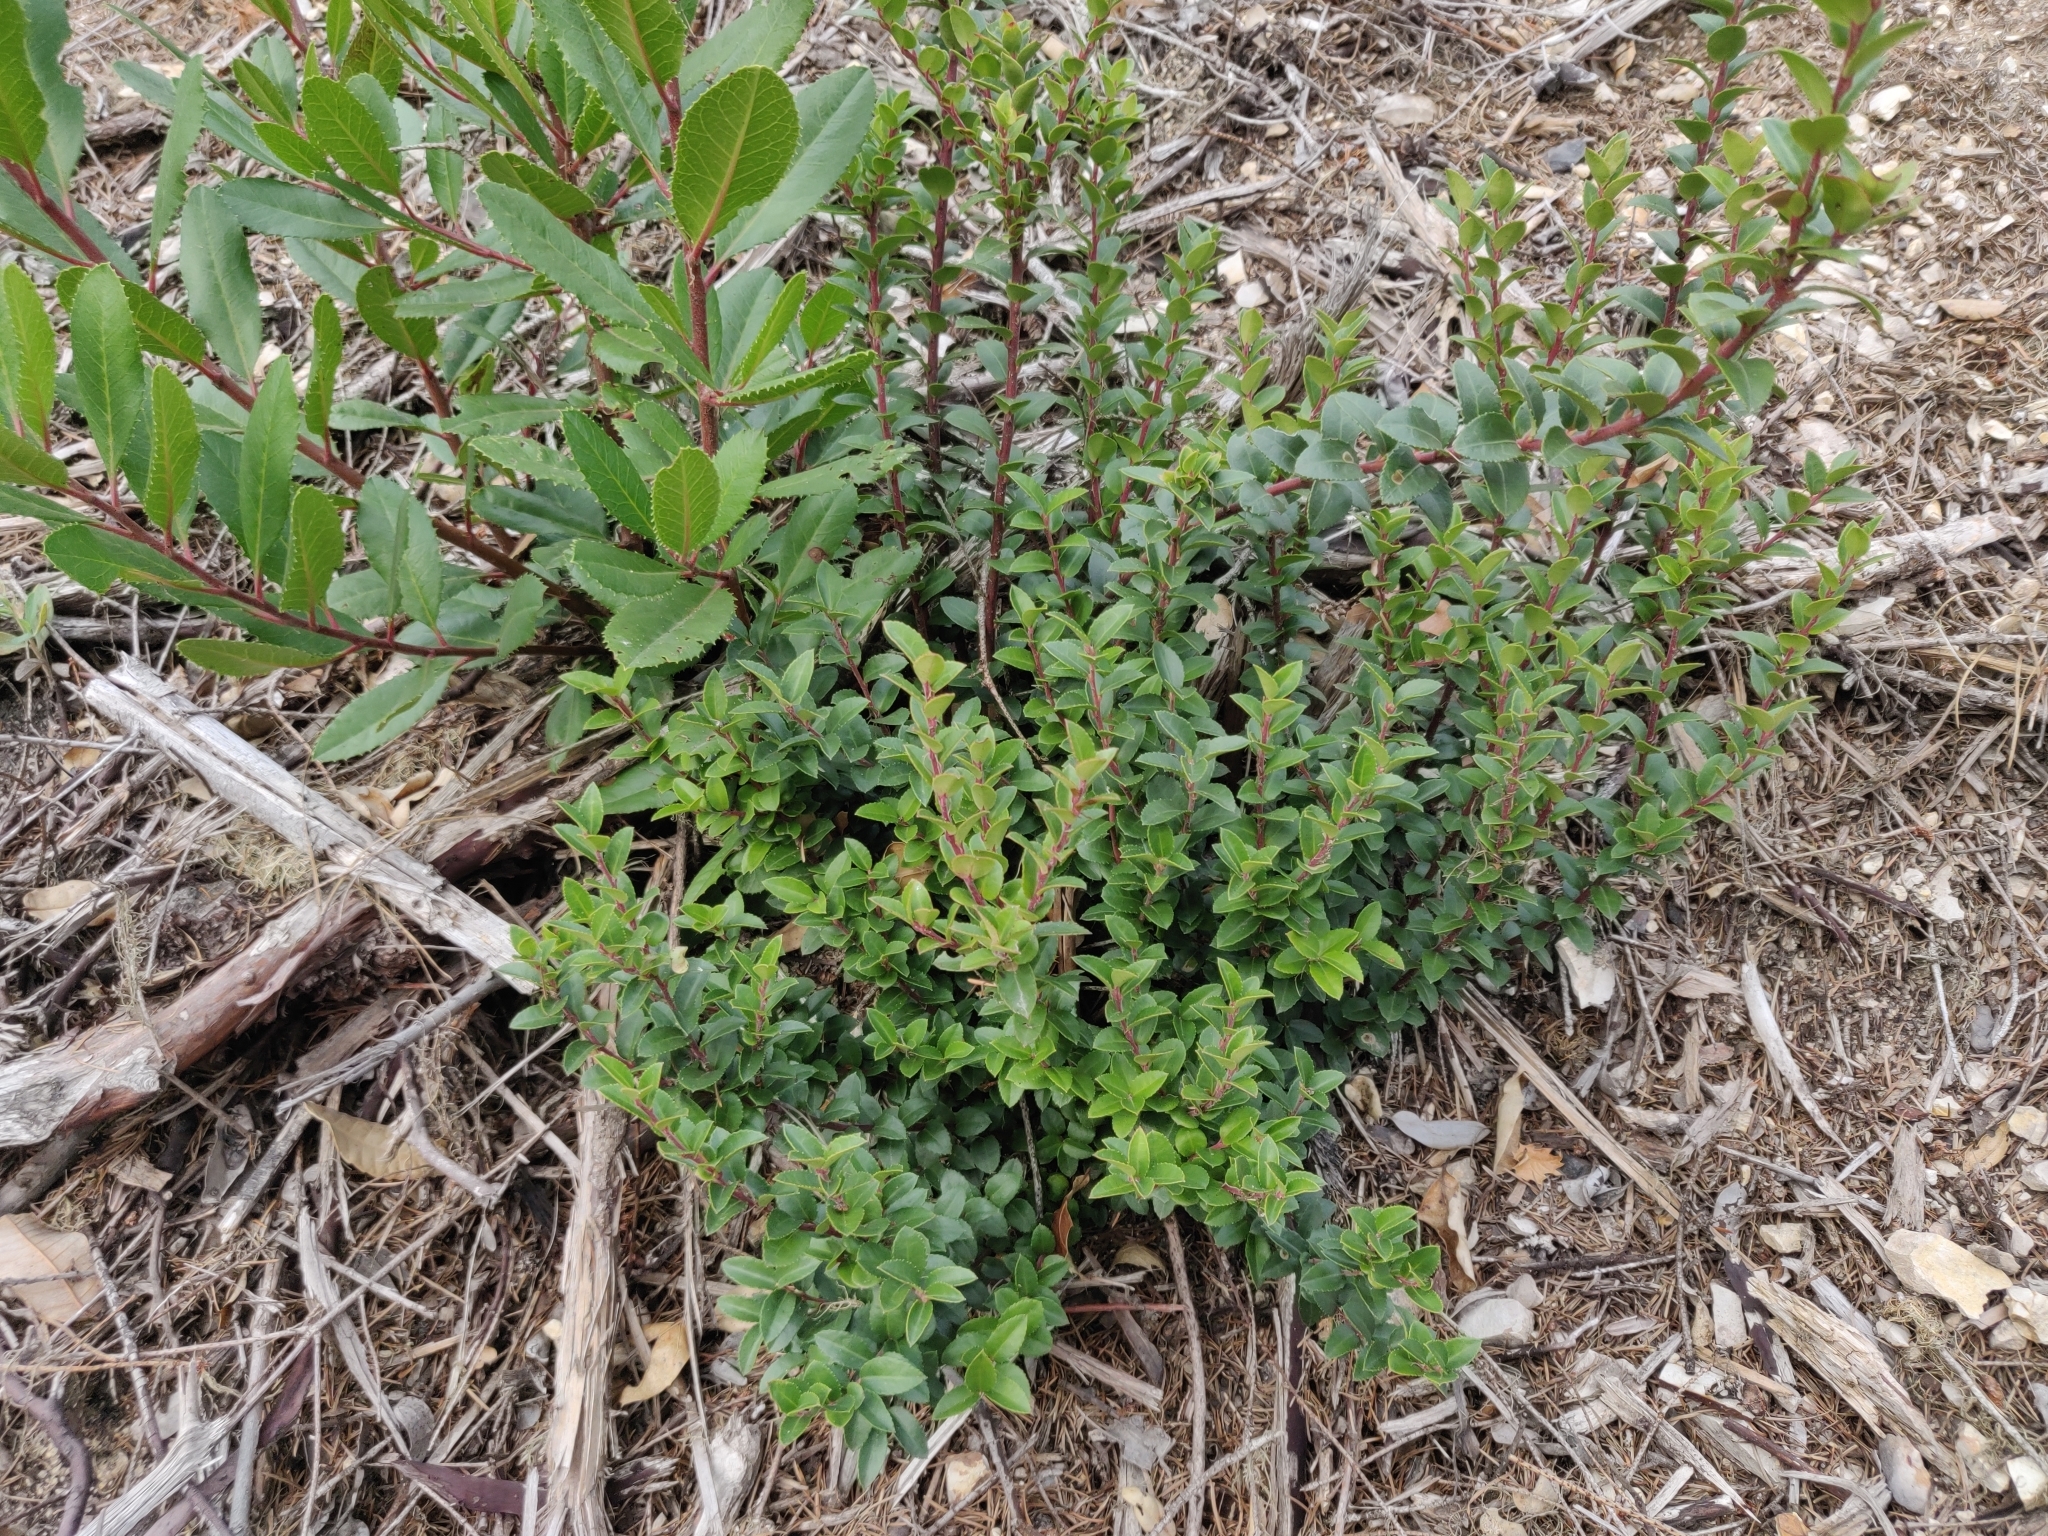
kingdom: Plantae
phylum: Tracheophyta
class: Magnoliopsida
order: Ericales
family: Ericaceae
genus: Vaccinium
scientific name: Vaccinium ovatum
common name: California-huckleberry
